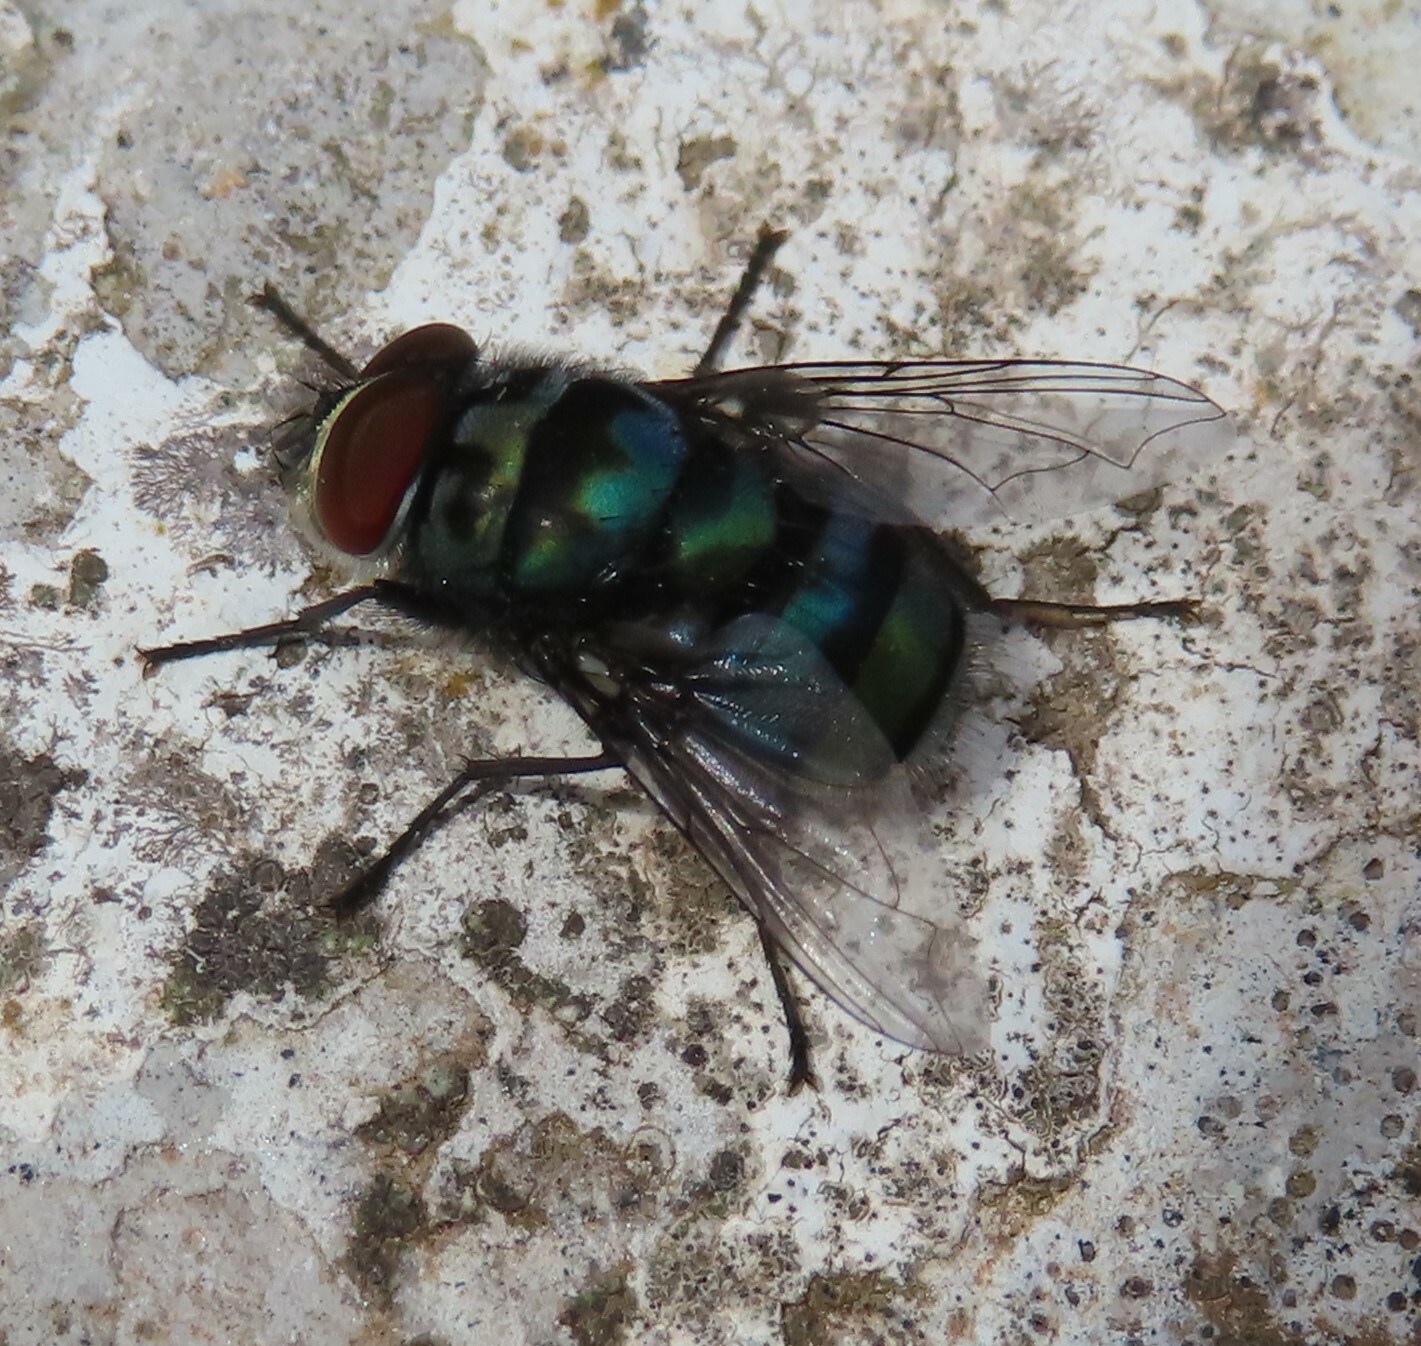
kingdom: Animalia
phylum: Arthropoda
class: Insecta
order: Diptera
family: Calliphoridae
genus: Chrysomya
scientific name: Chrysomya chloropyga
